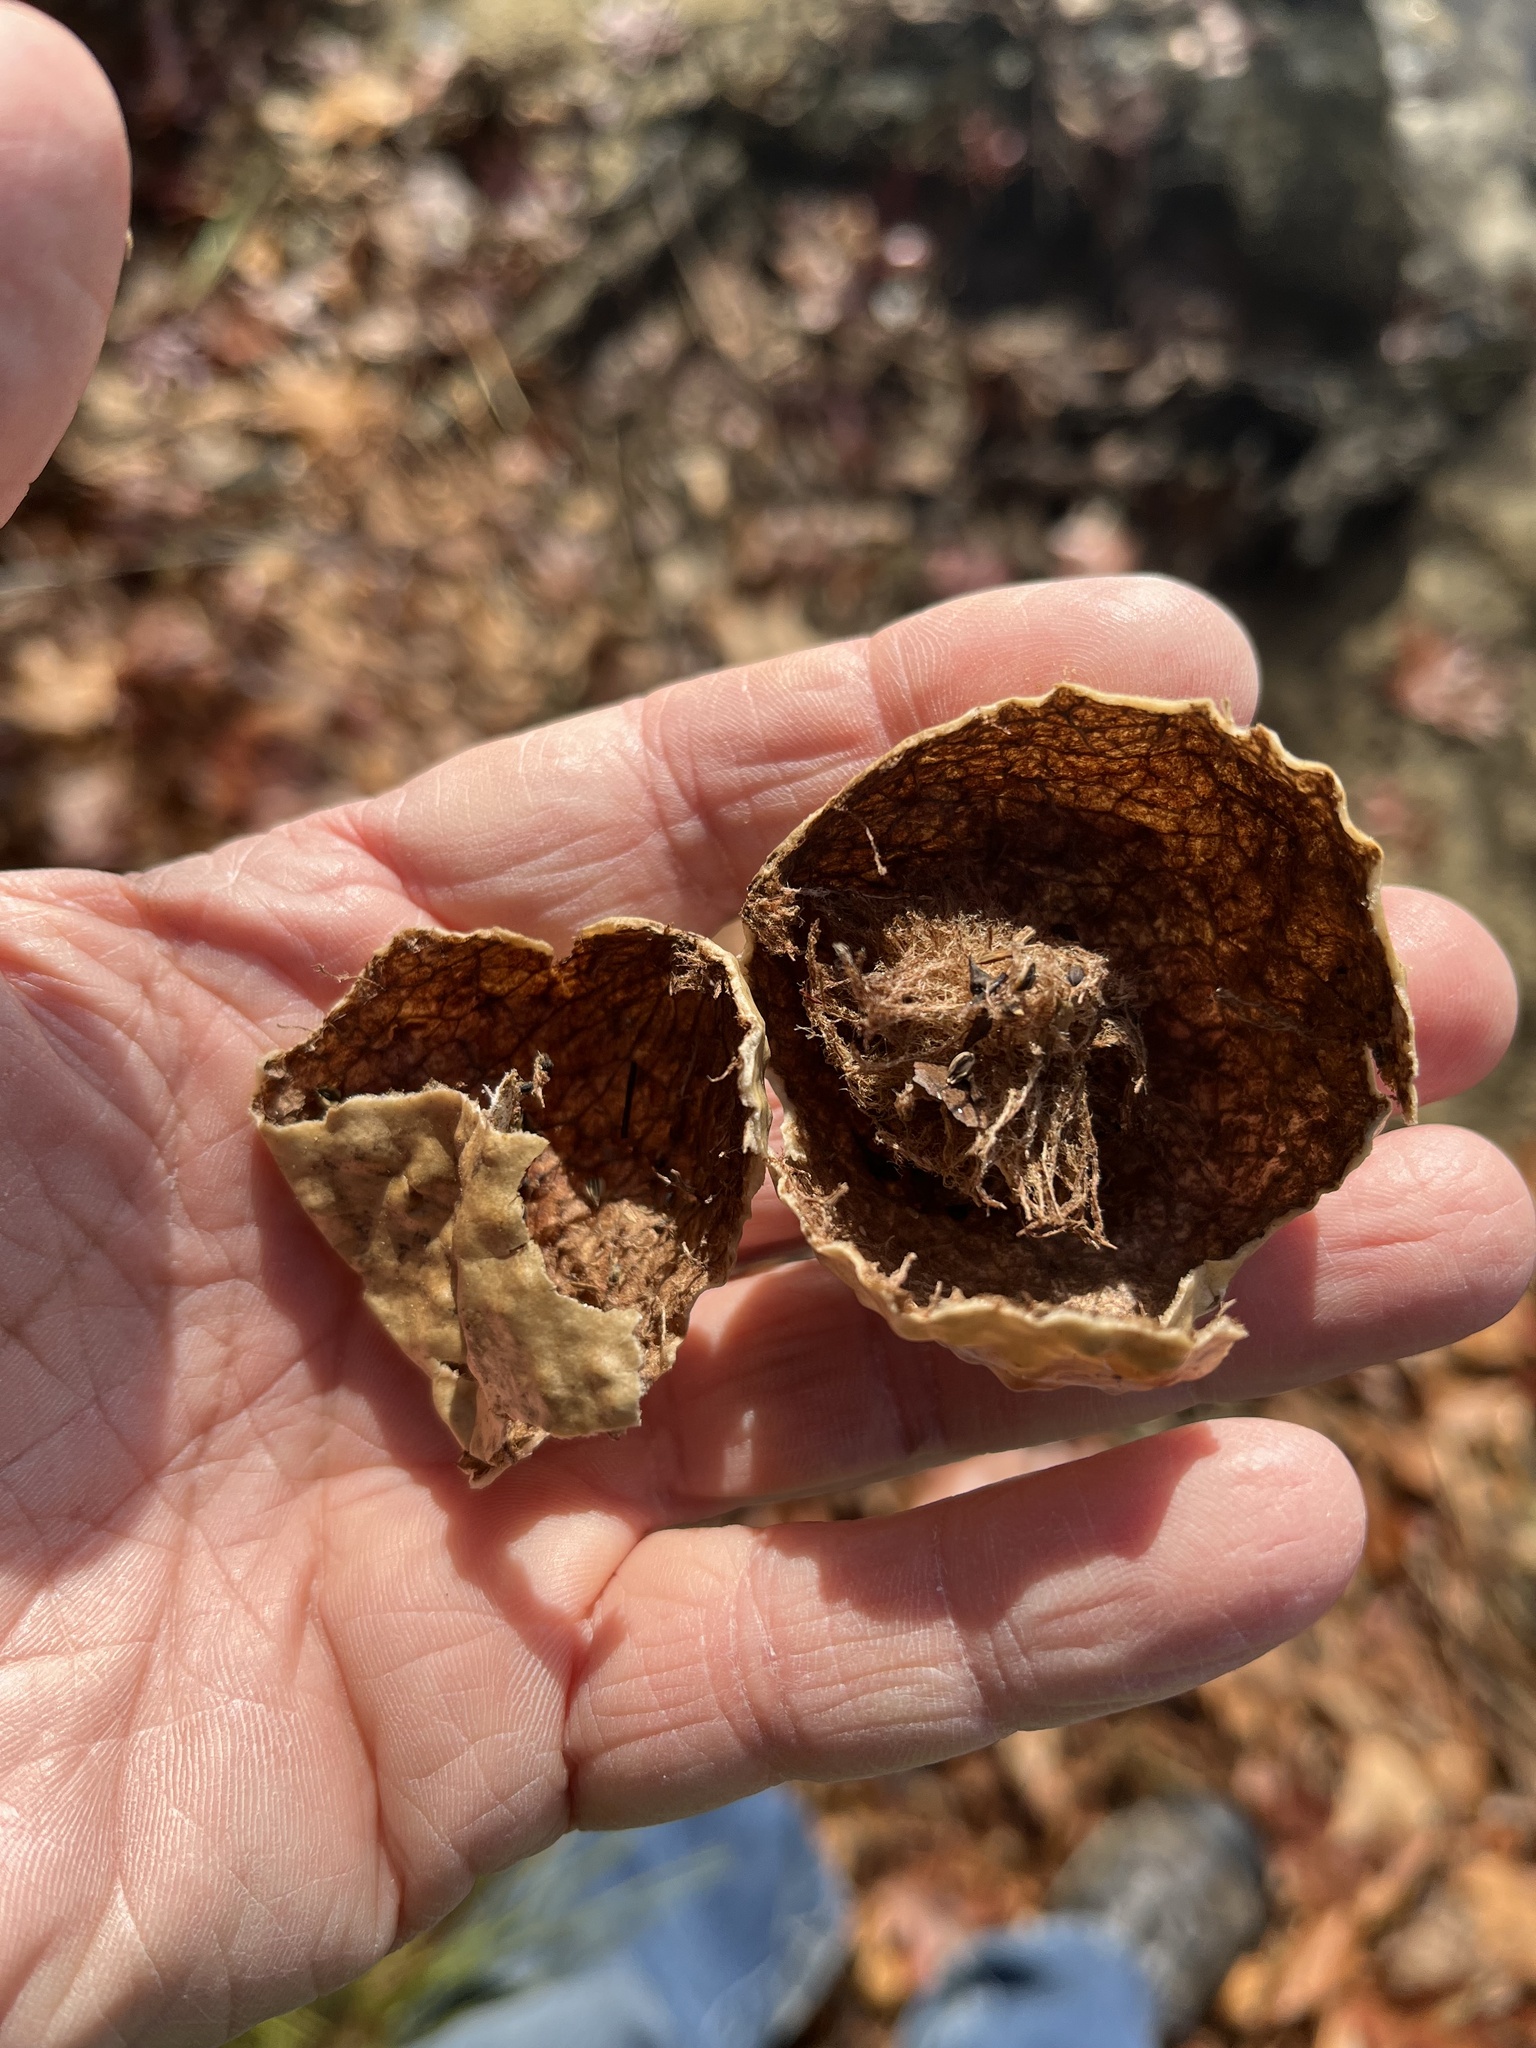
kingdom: Animalia
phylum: Arthropoda
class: Insecta
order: Hymenoptera
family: Cynipidae
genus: Amphibolips
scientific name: Amphibolips
